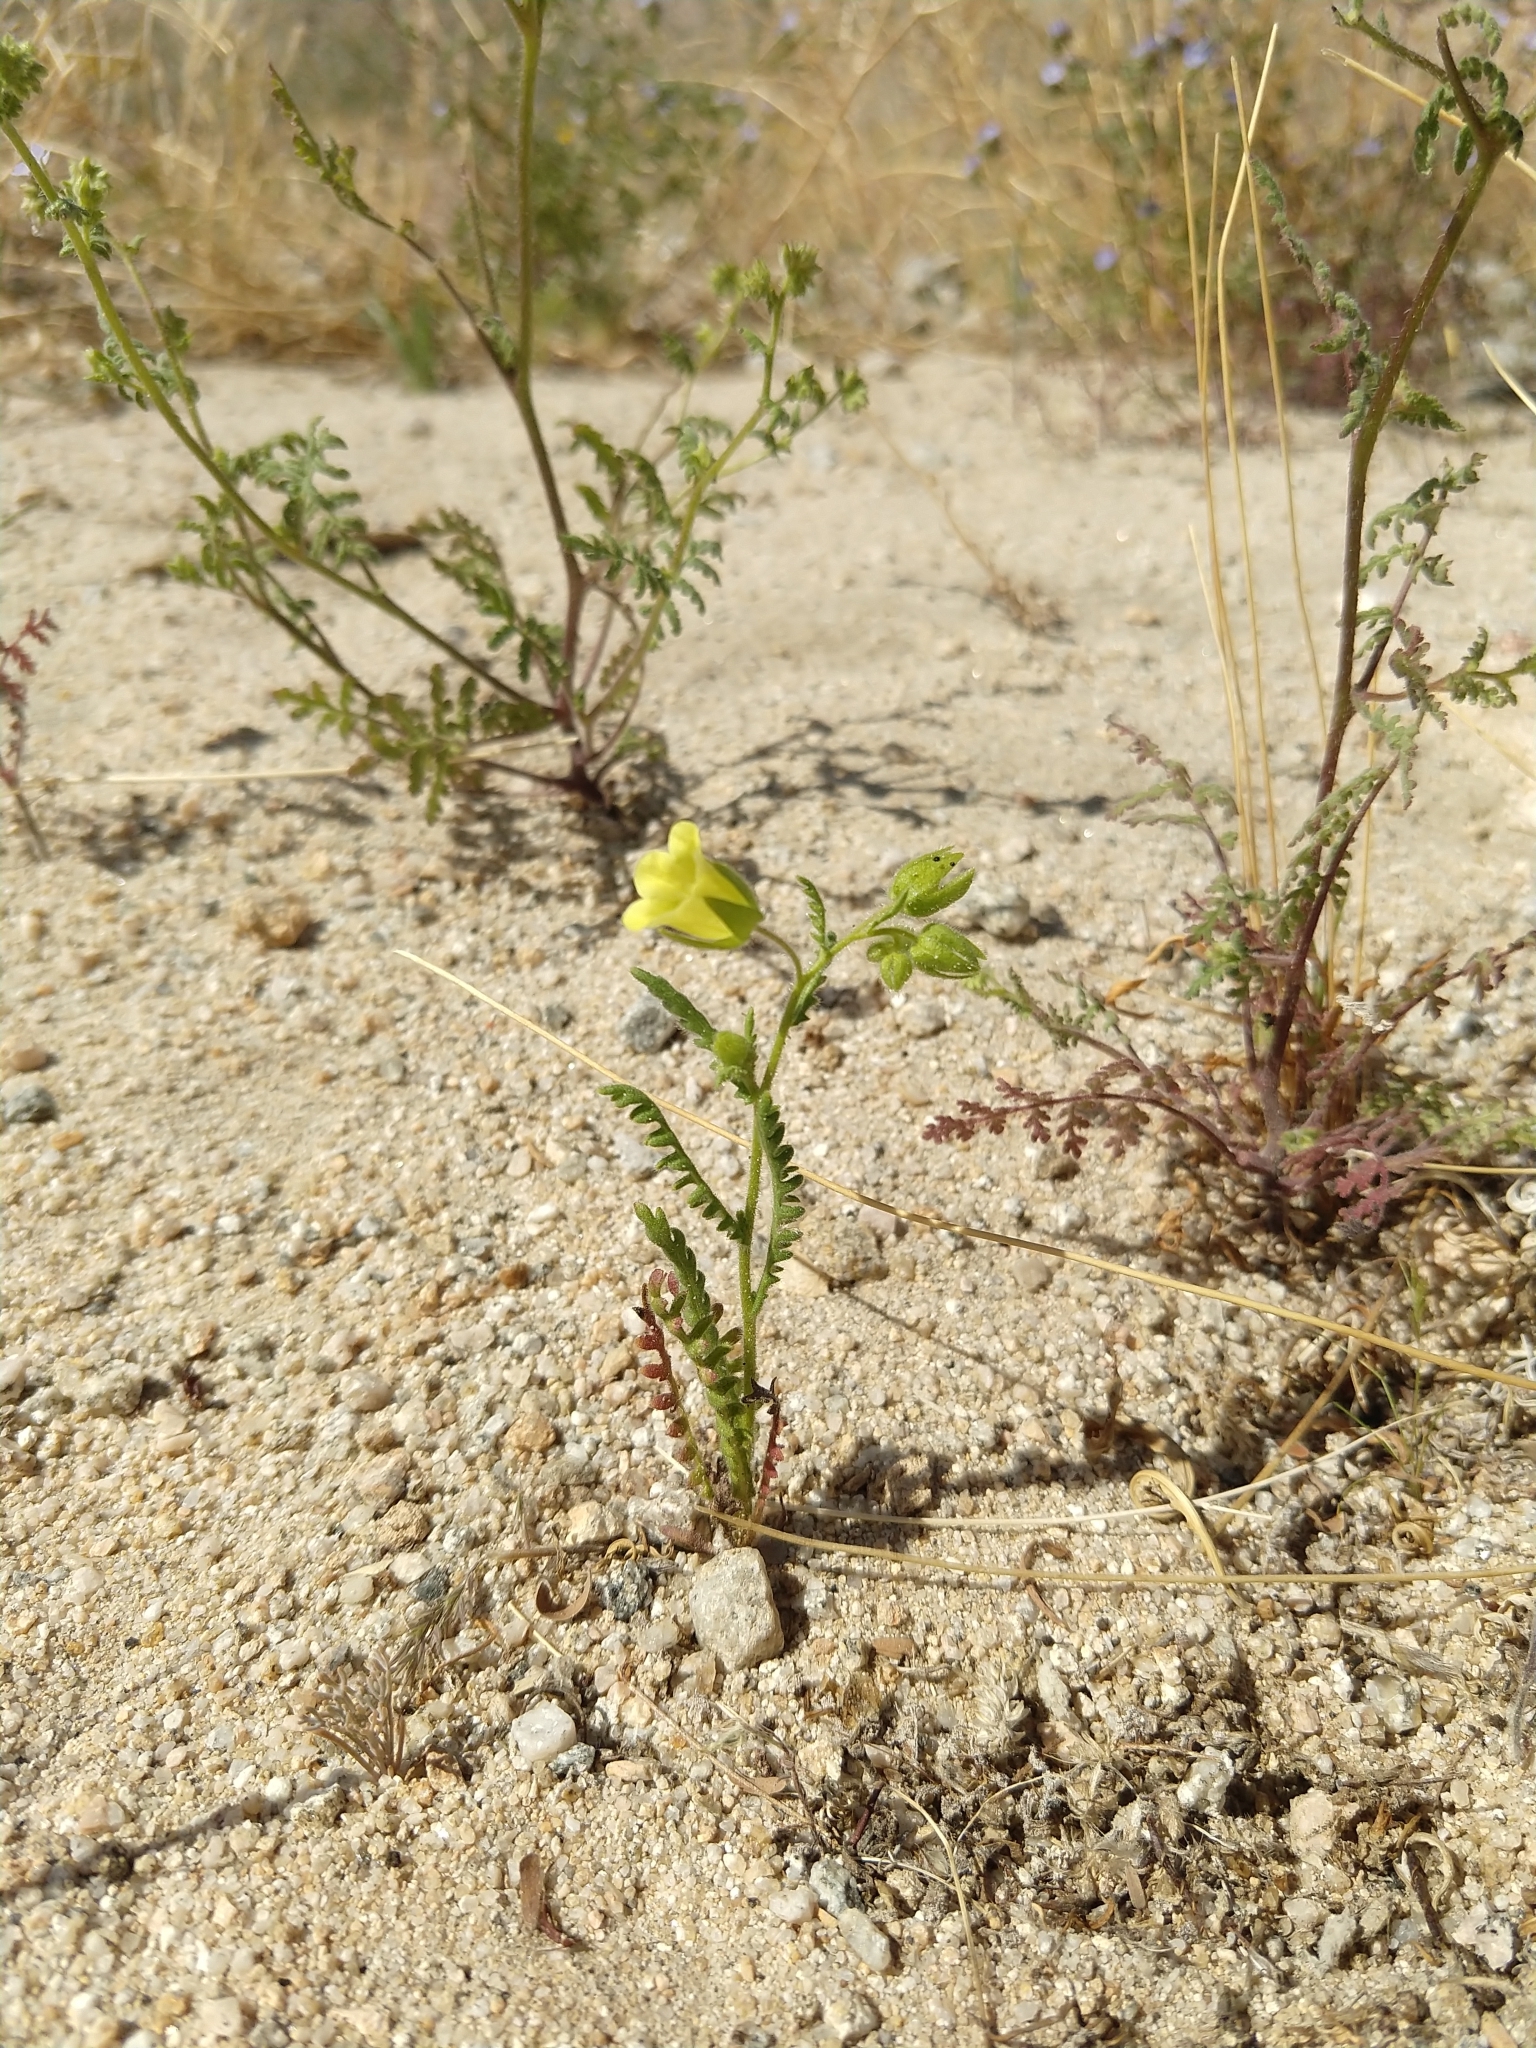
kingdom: Plantae
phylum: Tracheophyta
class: Magnoliopsida
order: Boraginales
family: Hydrophyllaceae
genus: Emmenanthe
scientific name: Emmenanthe penduliflora
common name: Whispering-bells
